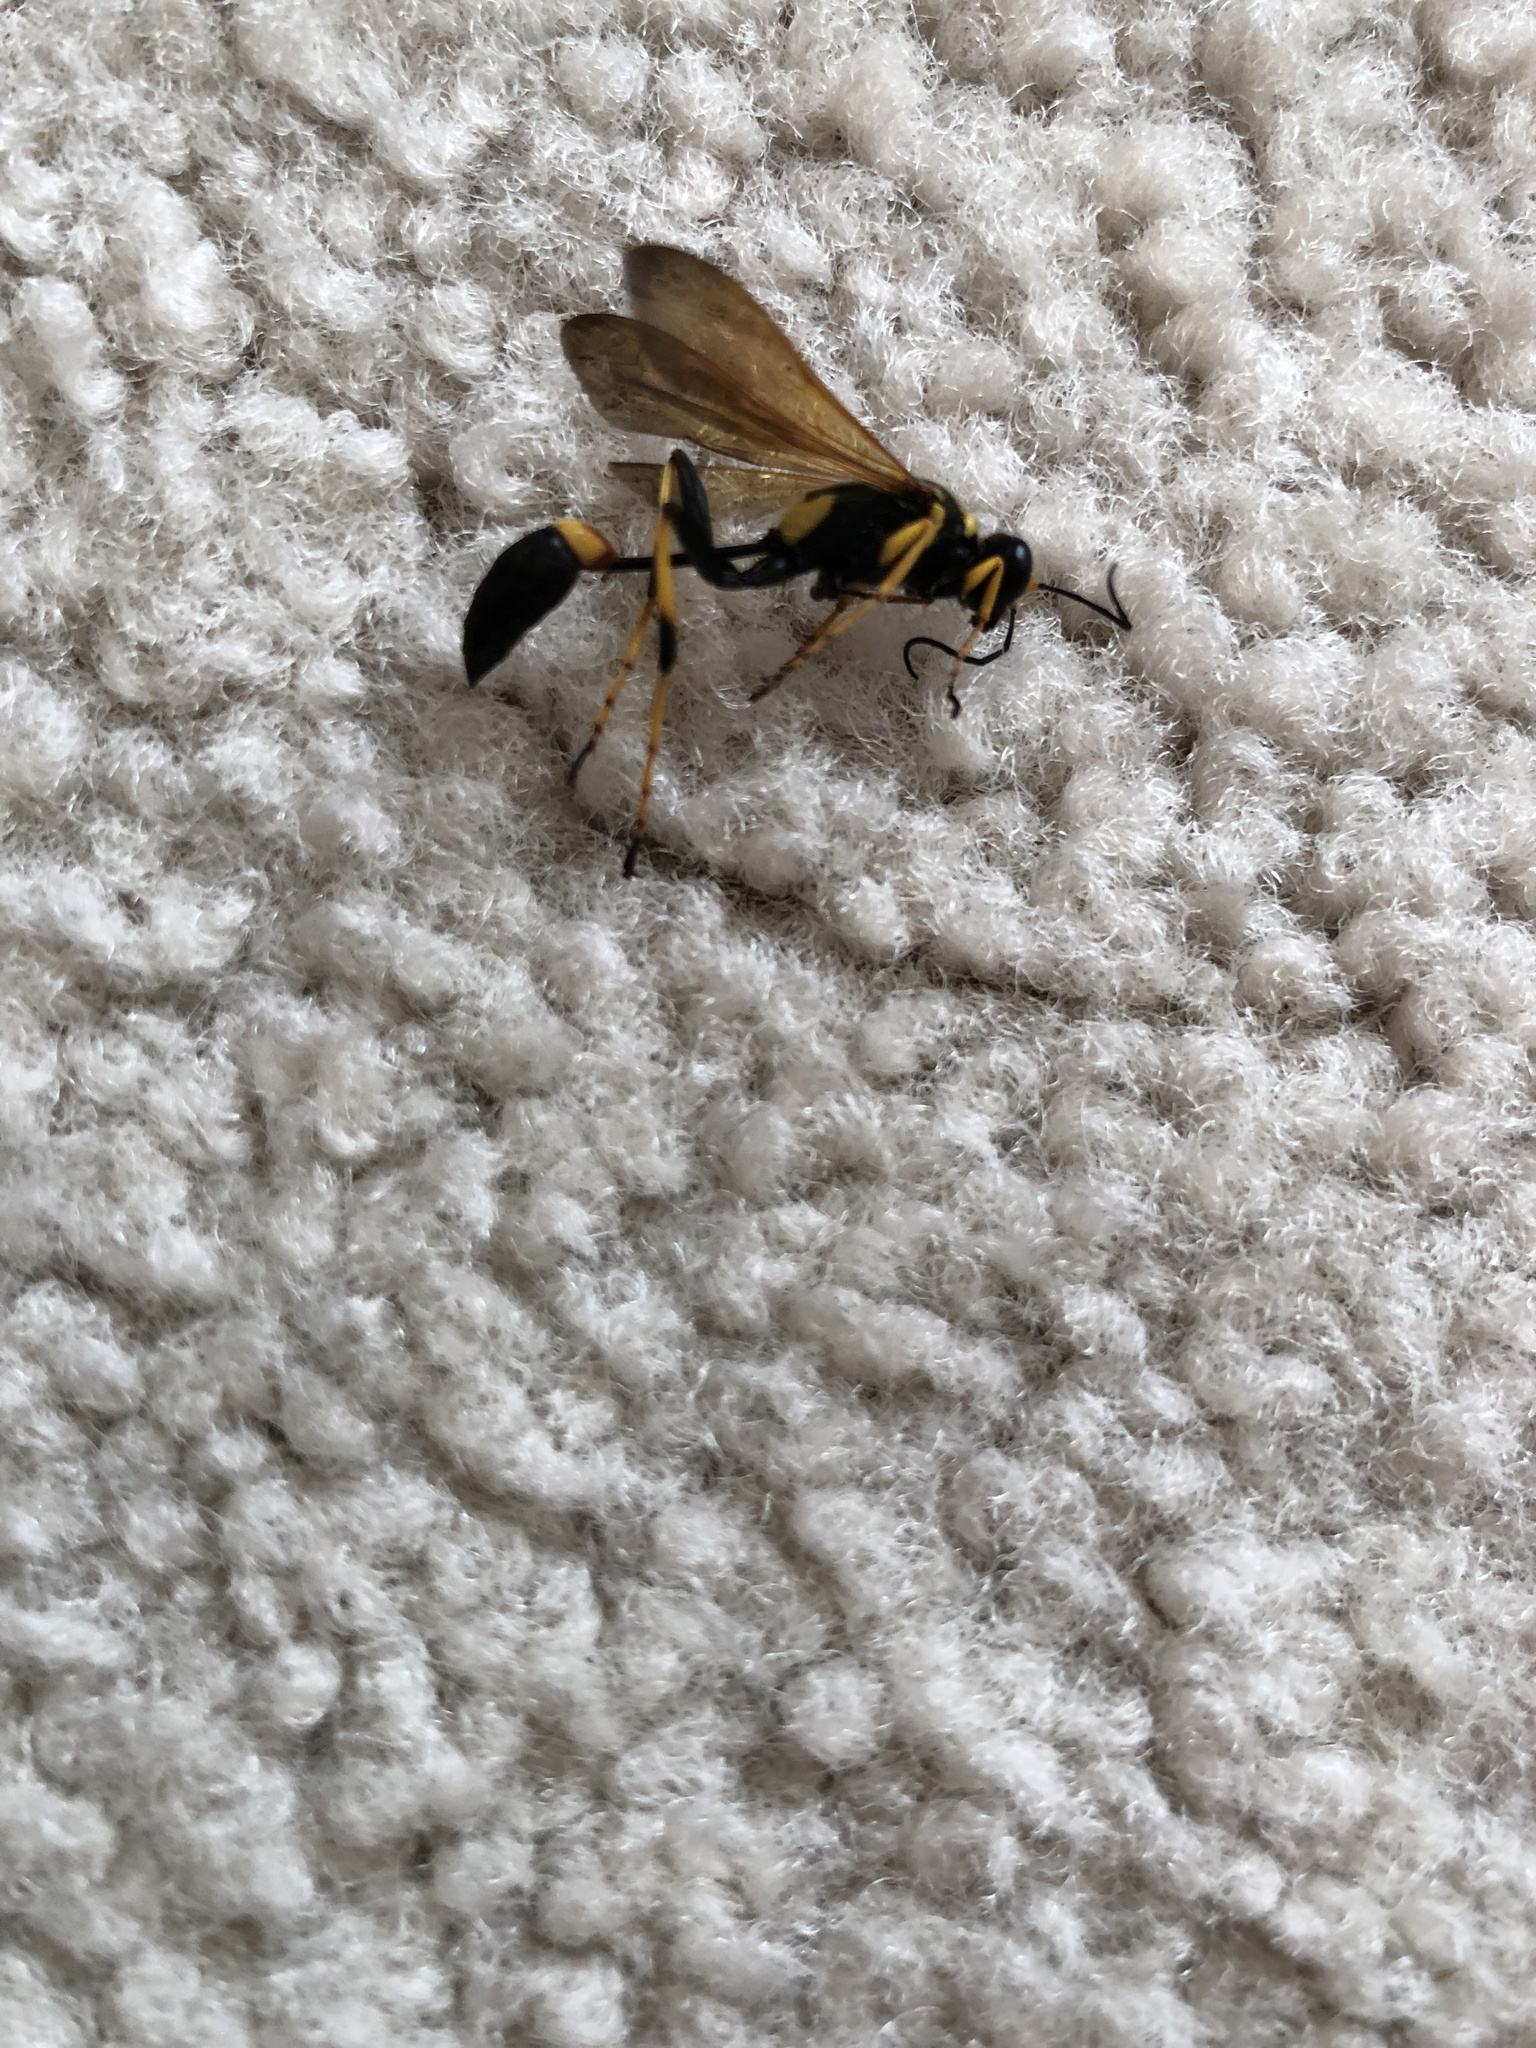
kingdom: Animalia
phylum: Arthropoda
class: Insecta
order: Hymenoptera
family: Sphecidae
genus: Sceliphron
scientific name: Sceliphron caementarium
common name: Mud dauber
